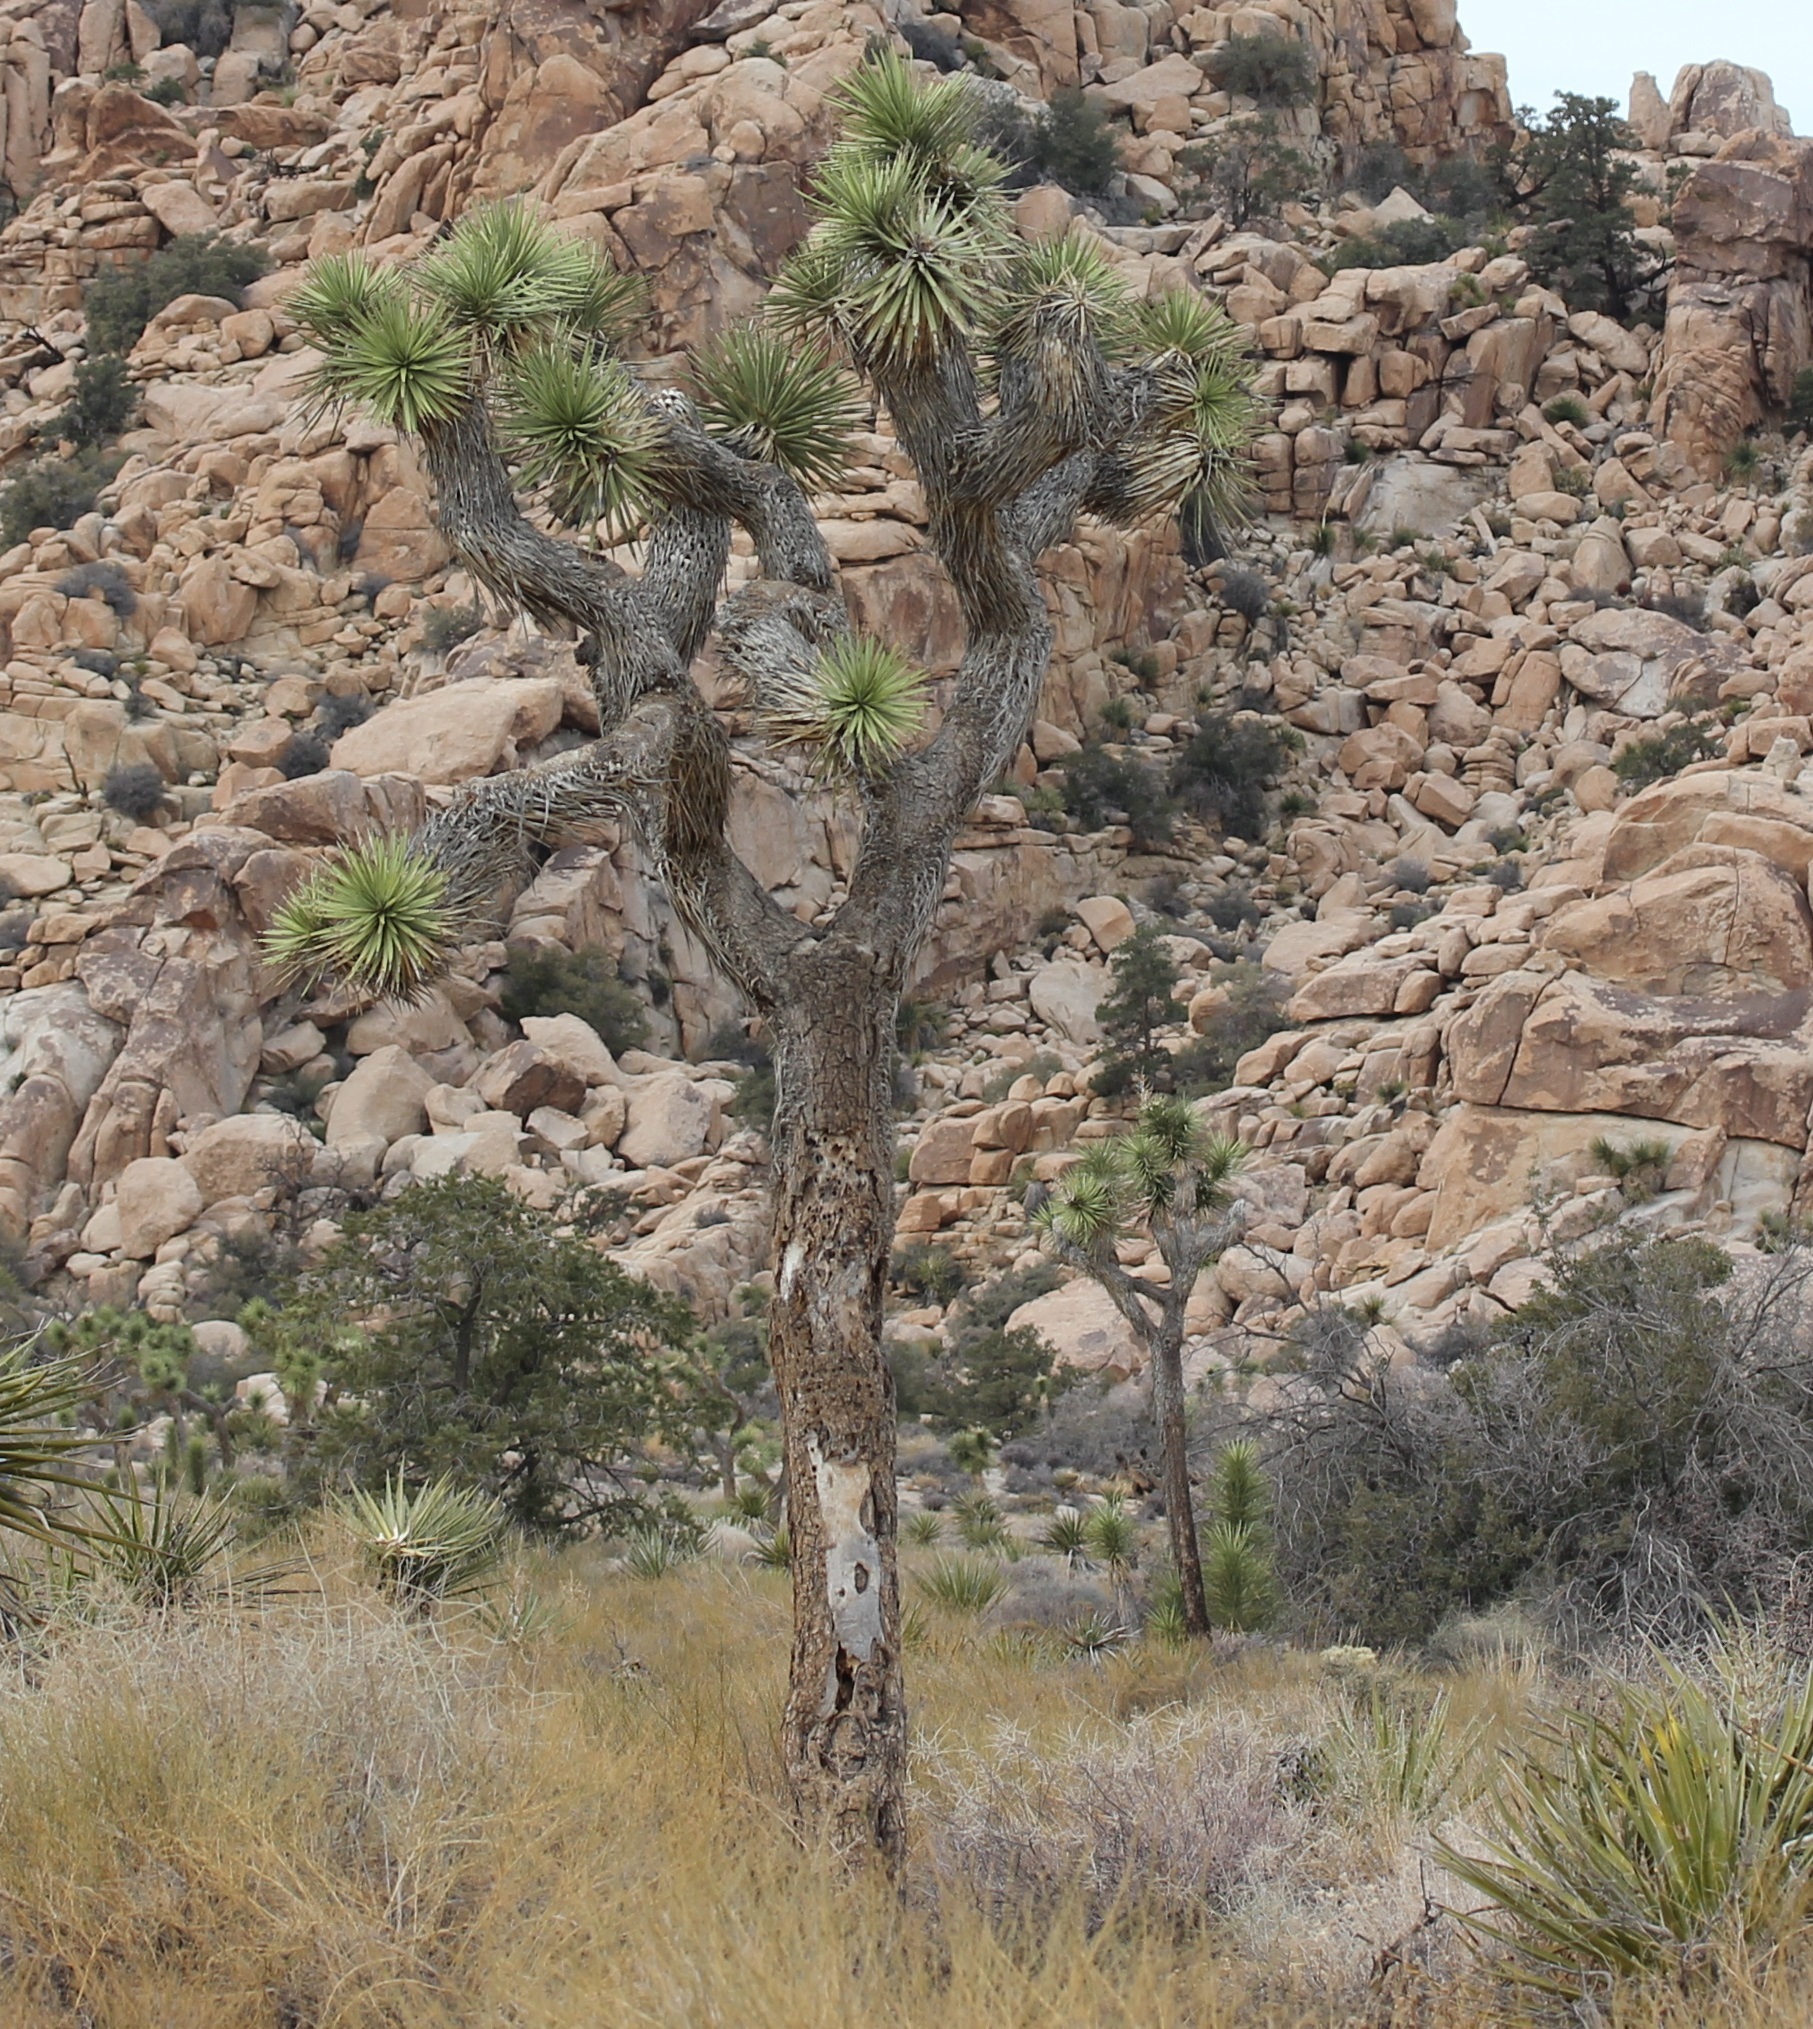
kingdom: Plantae
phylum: Tracheophyta
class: Liliopsida
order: Asparagales
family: Asparagaceae
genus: Yucca
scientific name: Yucca brevifolia
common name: Joshua tree
